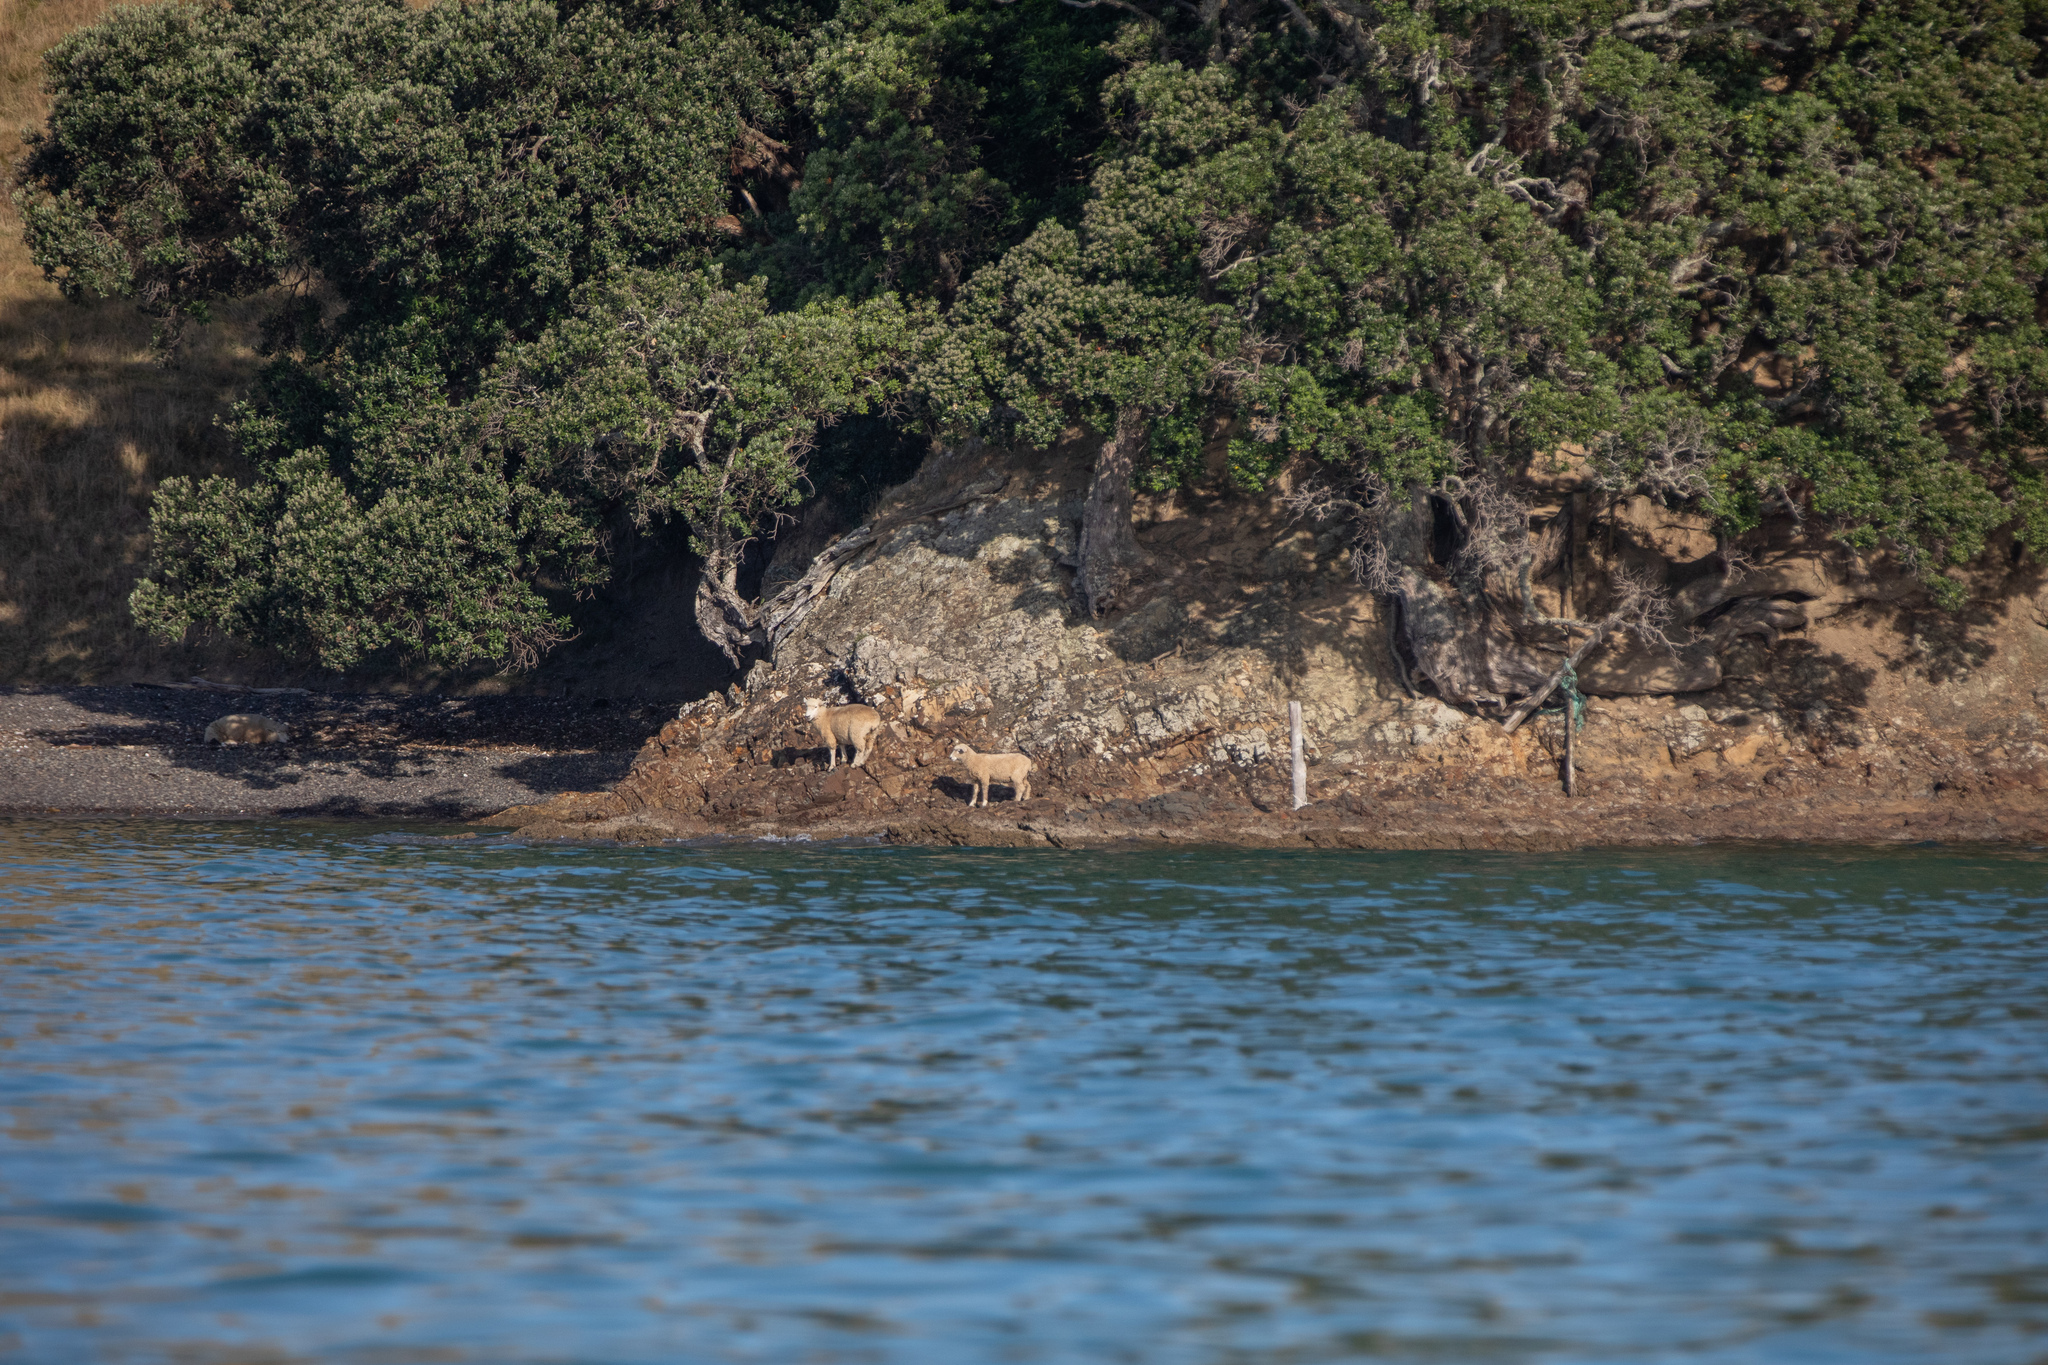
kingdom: Animalia
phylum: Chordata
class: Mammalia
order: Artiodactyla
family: Bovidae
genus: Ovis
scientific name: Ovis aries
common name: Domestic sheep
